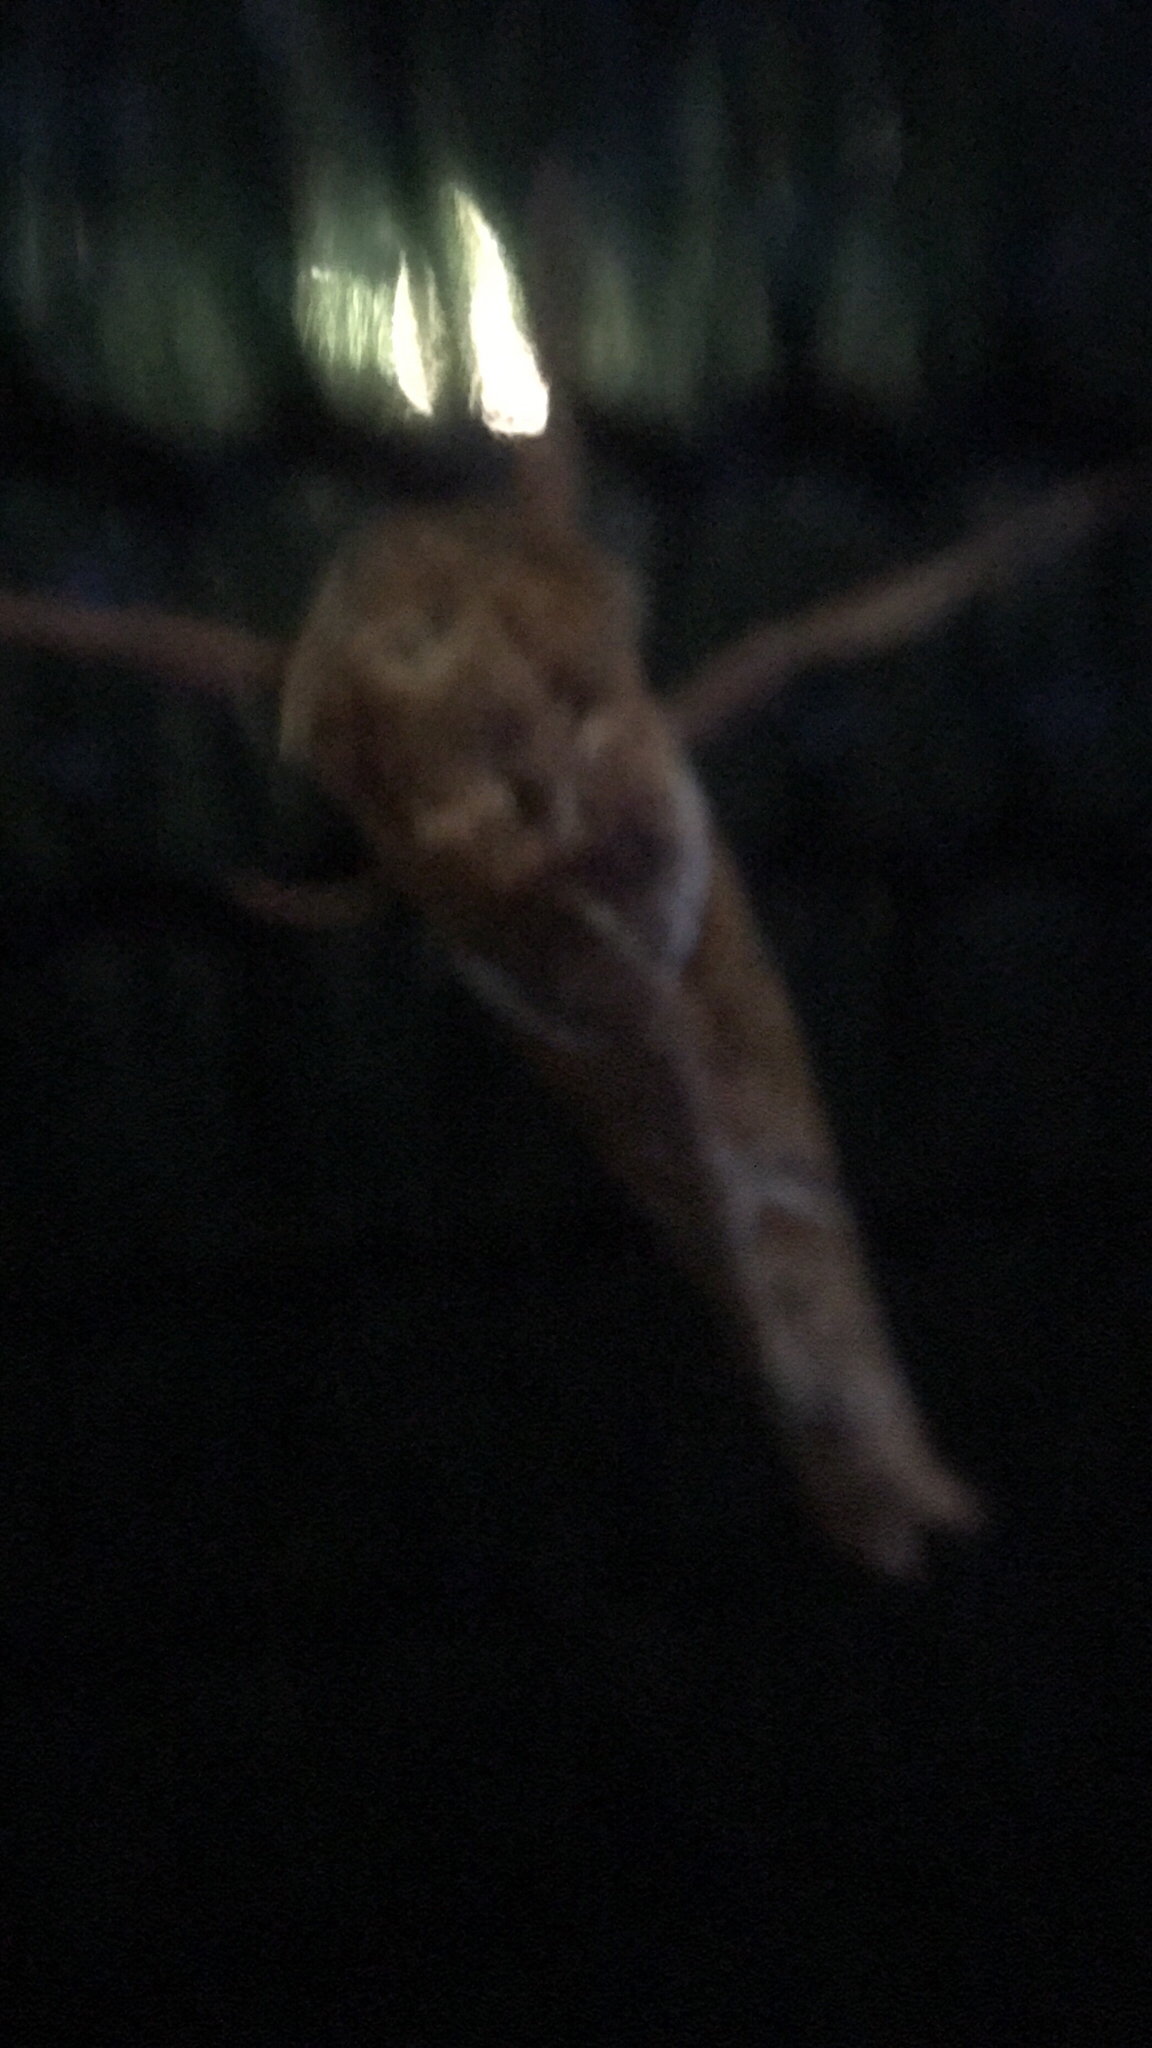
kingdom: Animalia
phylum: Arthropoda
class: Insecta
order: Lepidoptera
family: Hepialidae
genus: Triodia
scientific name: Triodia sylvina
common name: Orange swift
